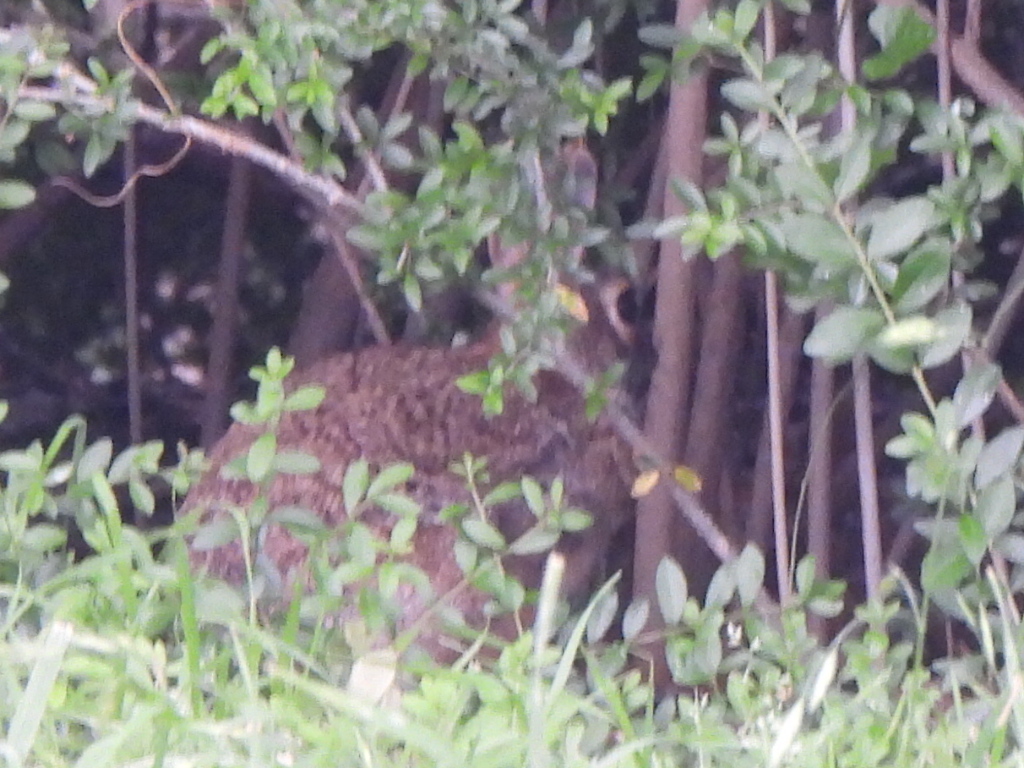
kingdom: Animalia
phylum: Chordata
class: Mammalia
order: Lagomorpha
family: Leporidae
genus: Sylvilagus
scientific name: Sylvilagus floridanus
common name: Eastern cottontail
